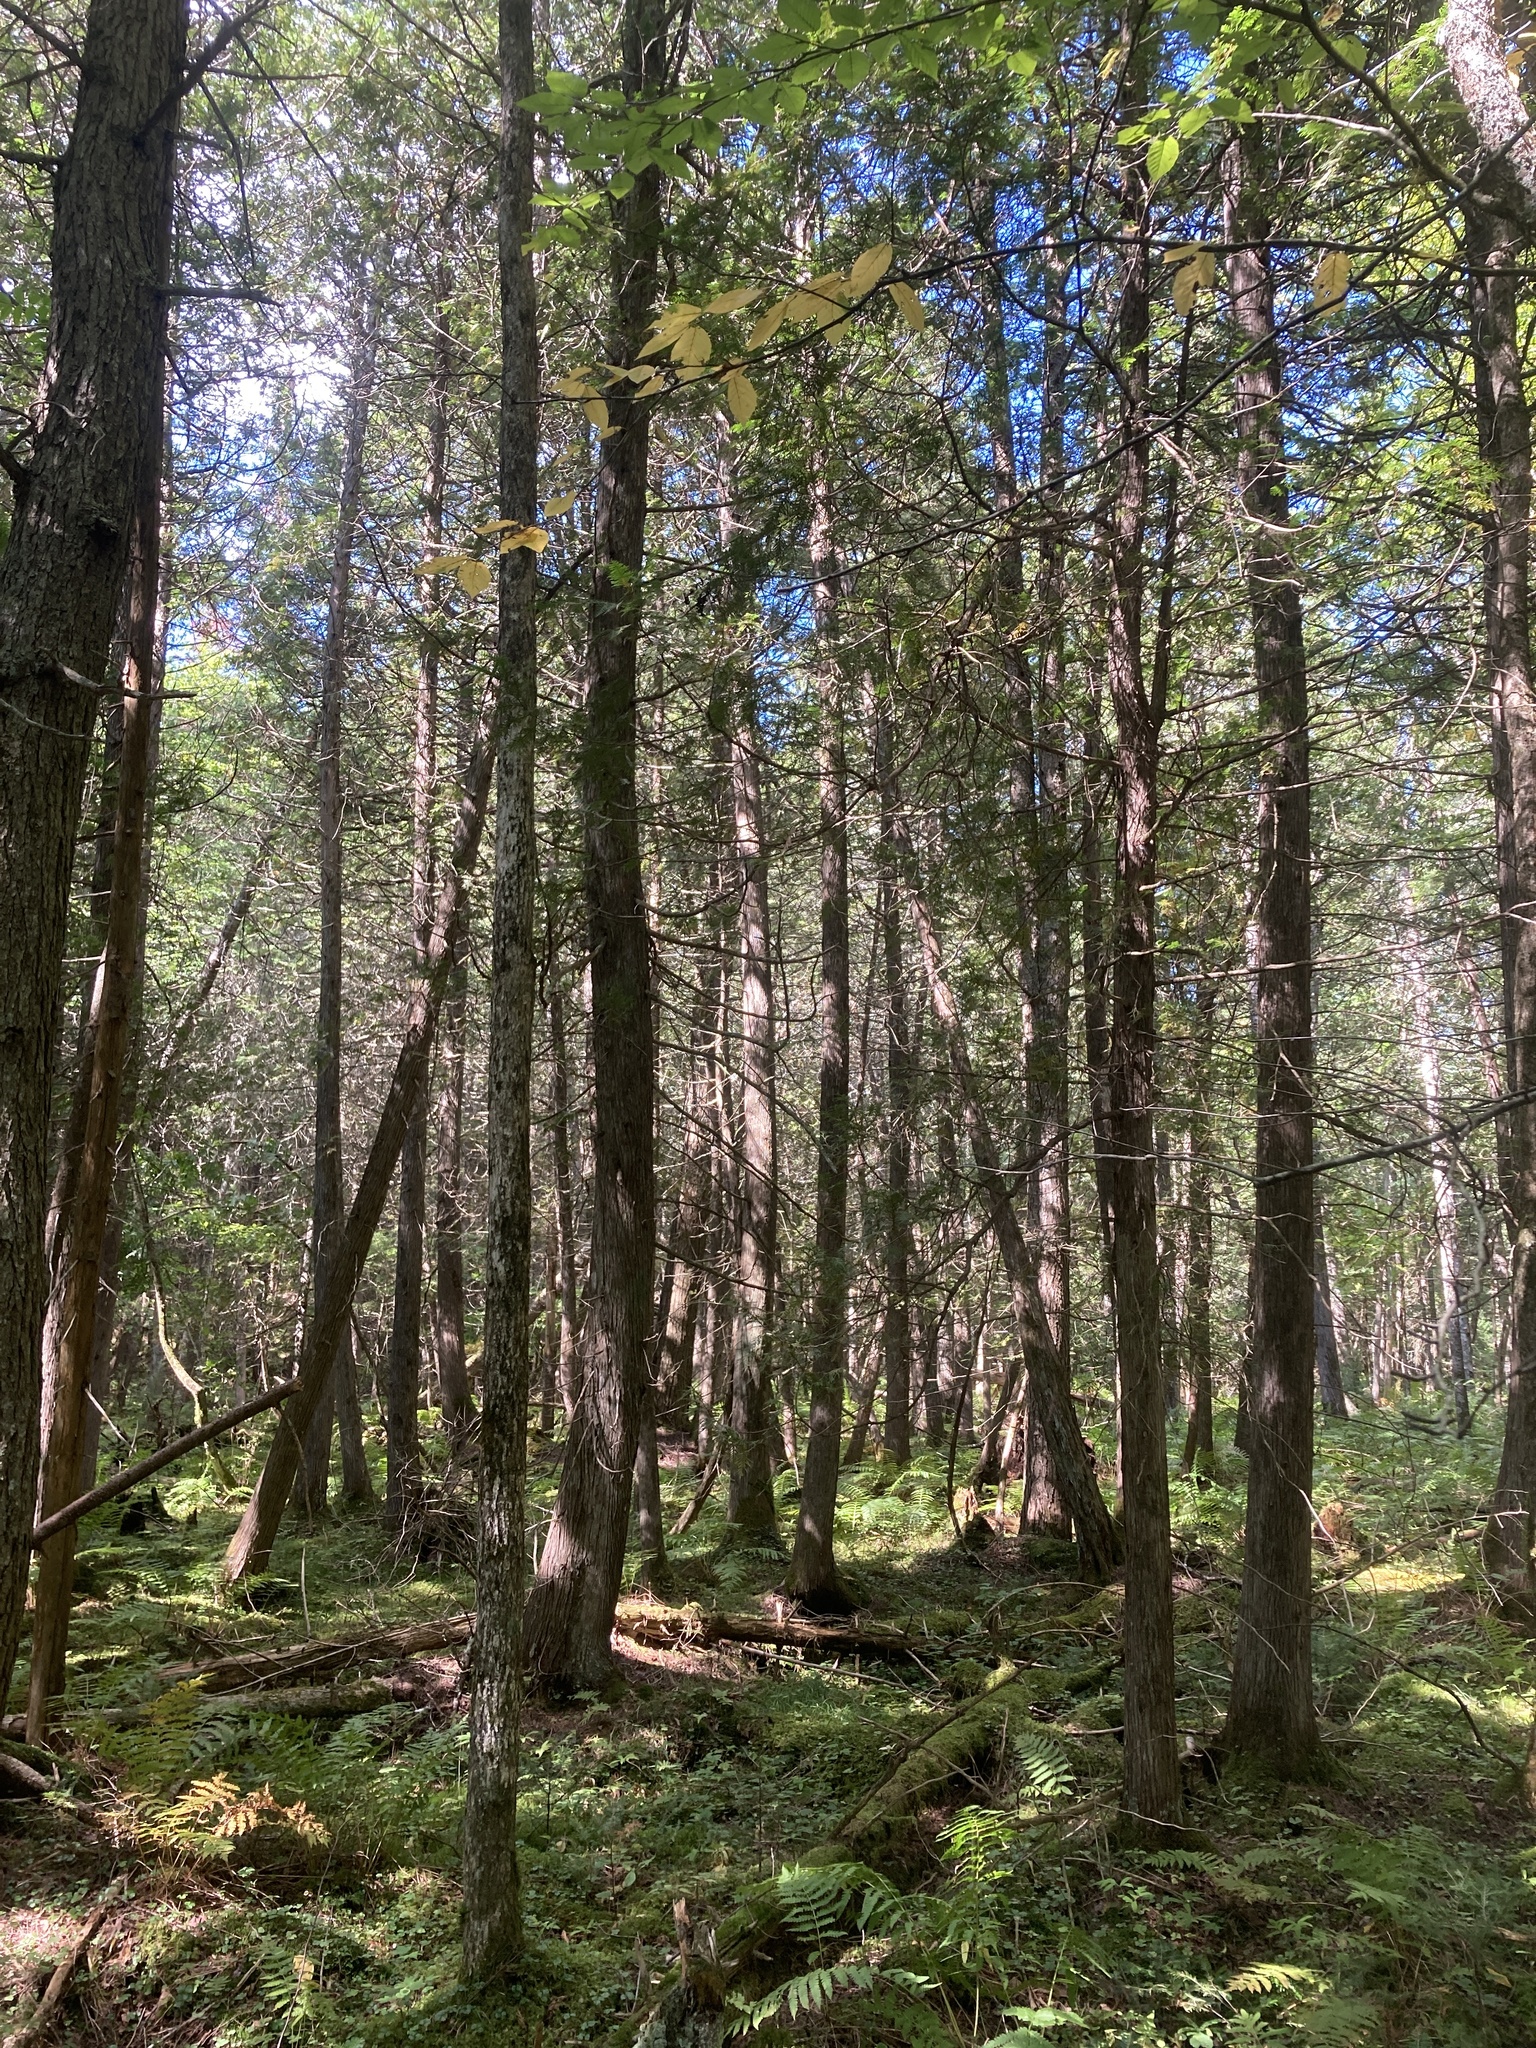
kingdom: Plantae
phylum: Tracheophyta
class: Pinopsida
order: Pinales
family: Cupressaceae
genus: Thuja
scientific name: Thuja occidentalis
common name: Northern white-cedar
